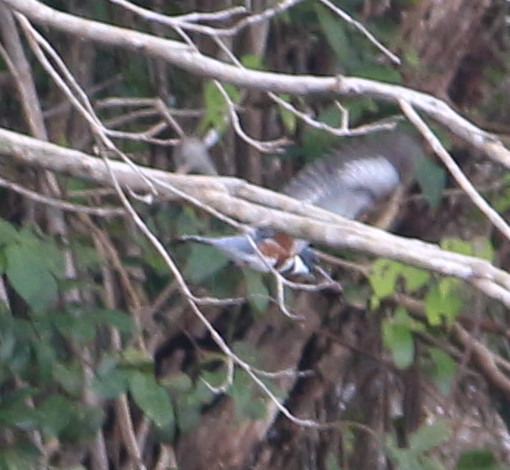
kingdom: Animalia
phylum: Chordata
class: Aves
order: Coraciiformes
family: Alcedinidae
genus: Megaceryle
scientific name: Megaceryle alcyon
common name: Belted kingfisher
